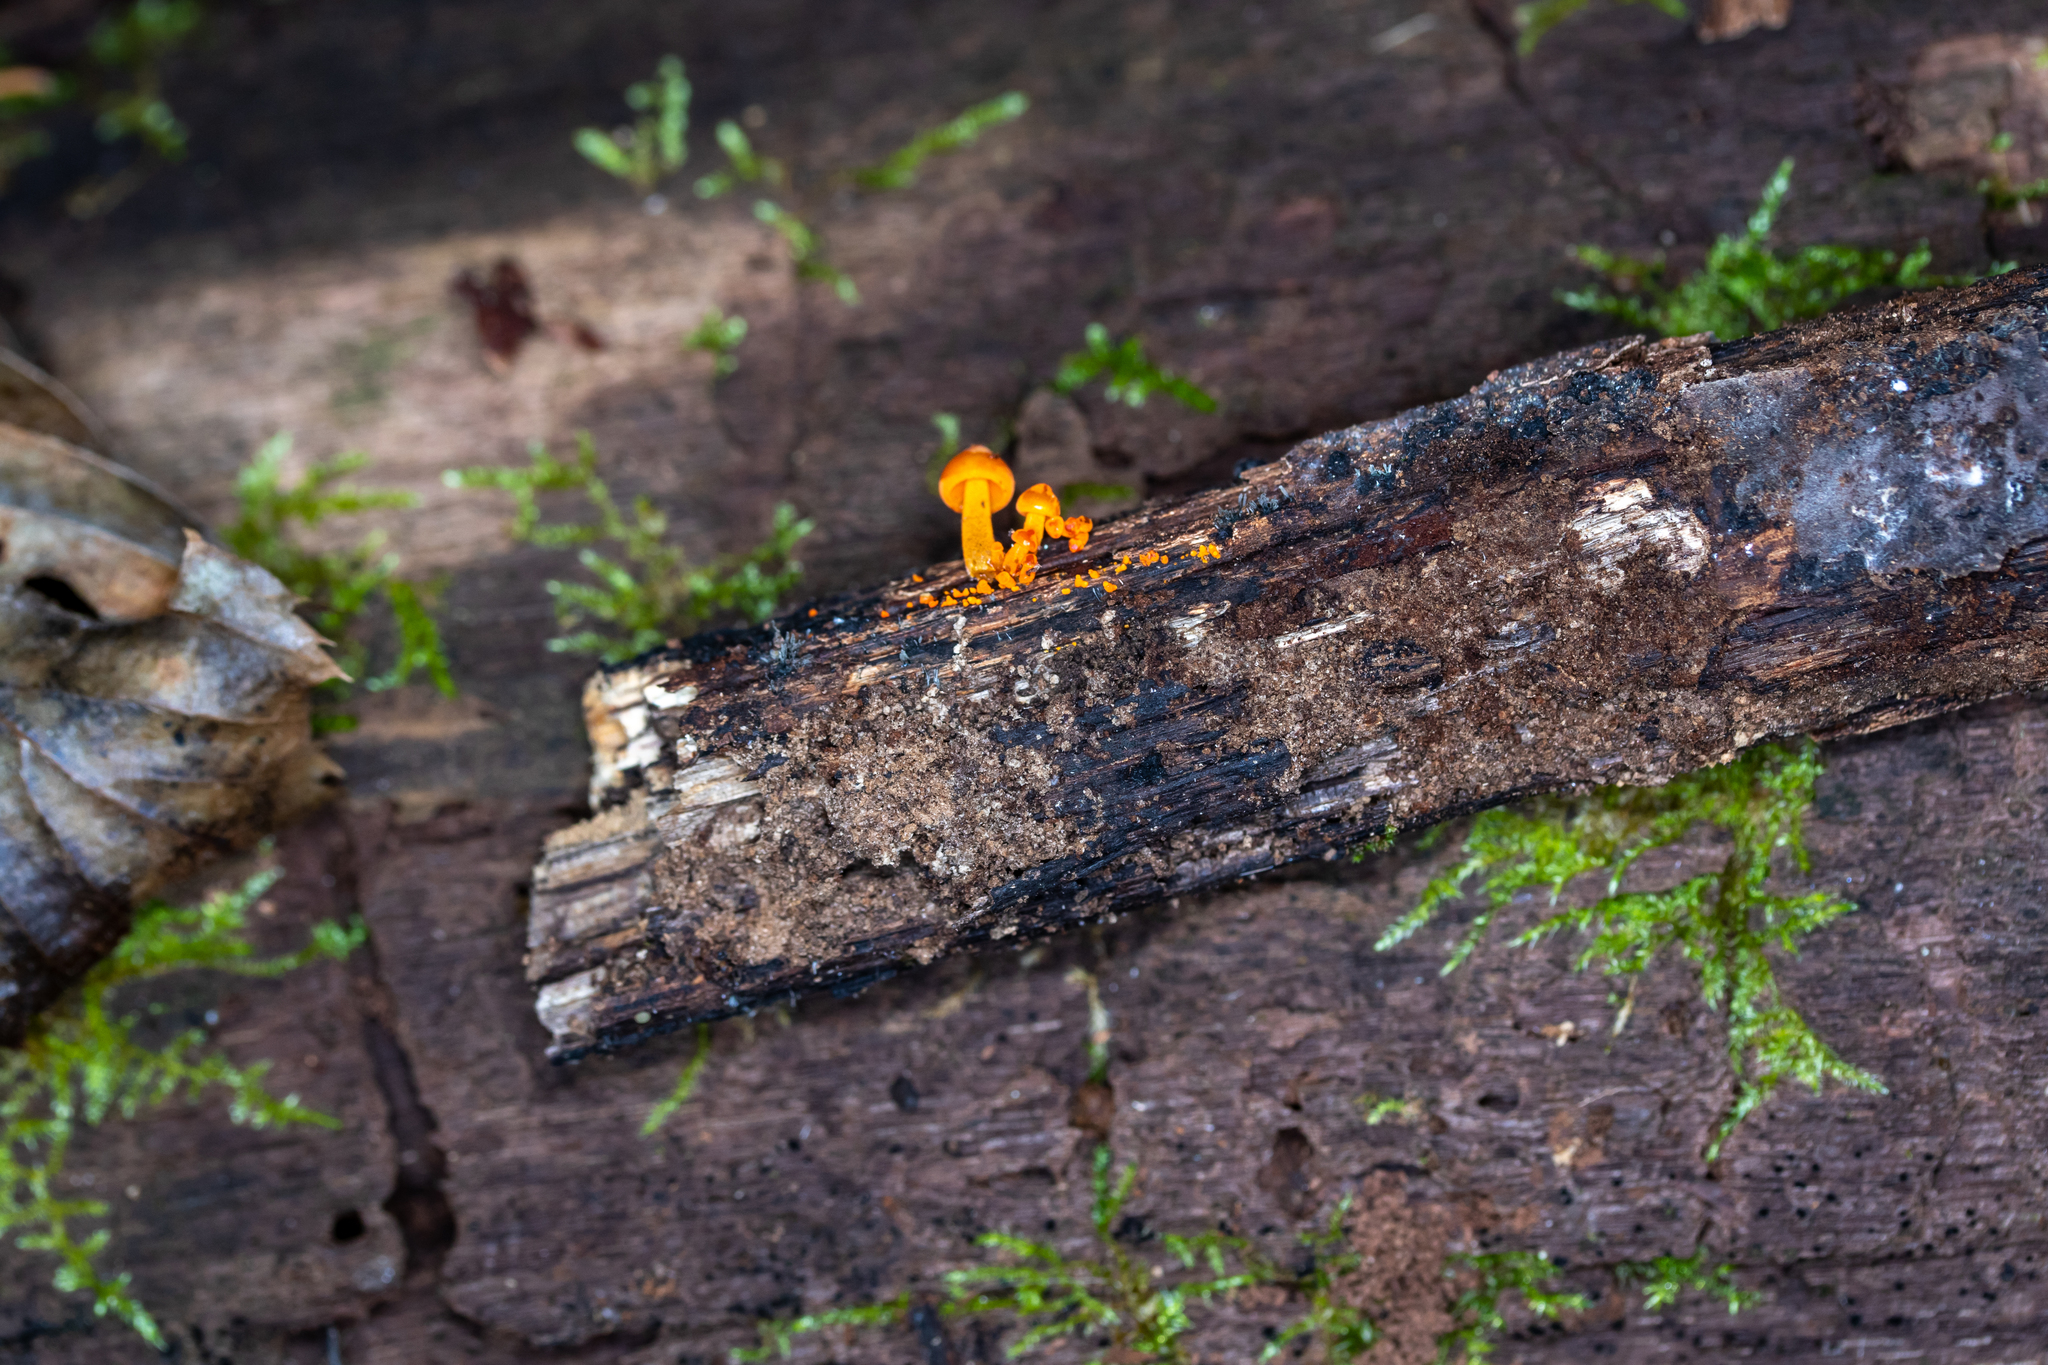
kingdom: Fungi
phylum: Basidiomycota
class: Agaricomycetes
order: Agaricales
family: Mycenaceae
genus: Mycena
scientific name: Mycena leaiana
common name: Orange mycena
